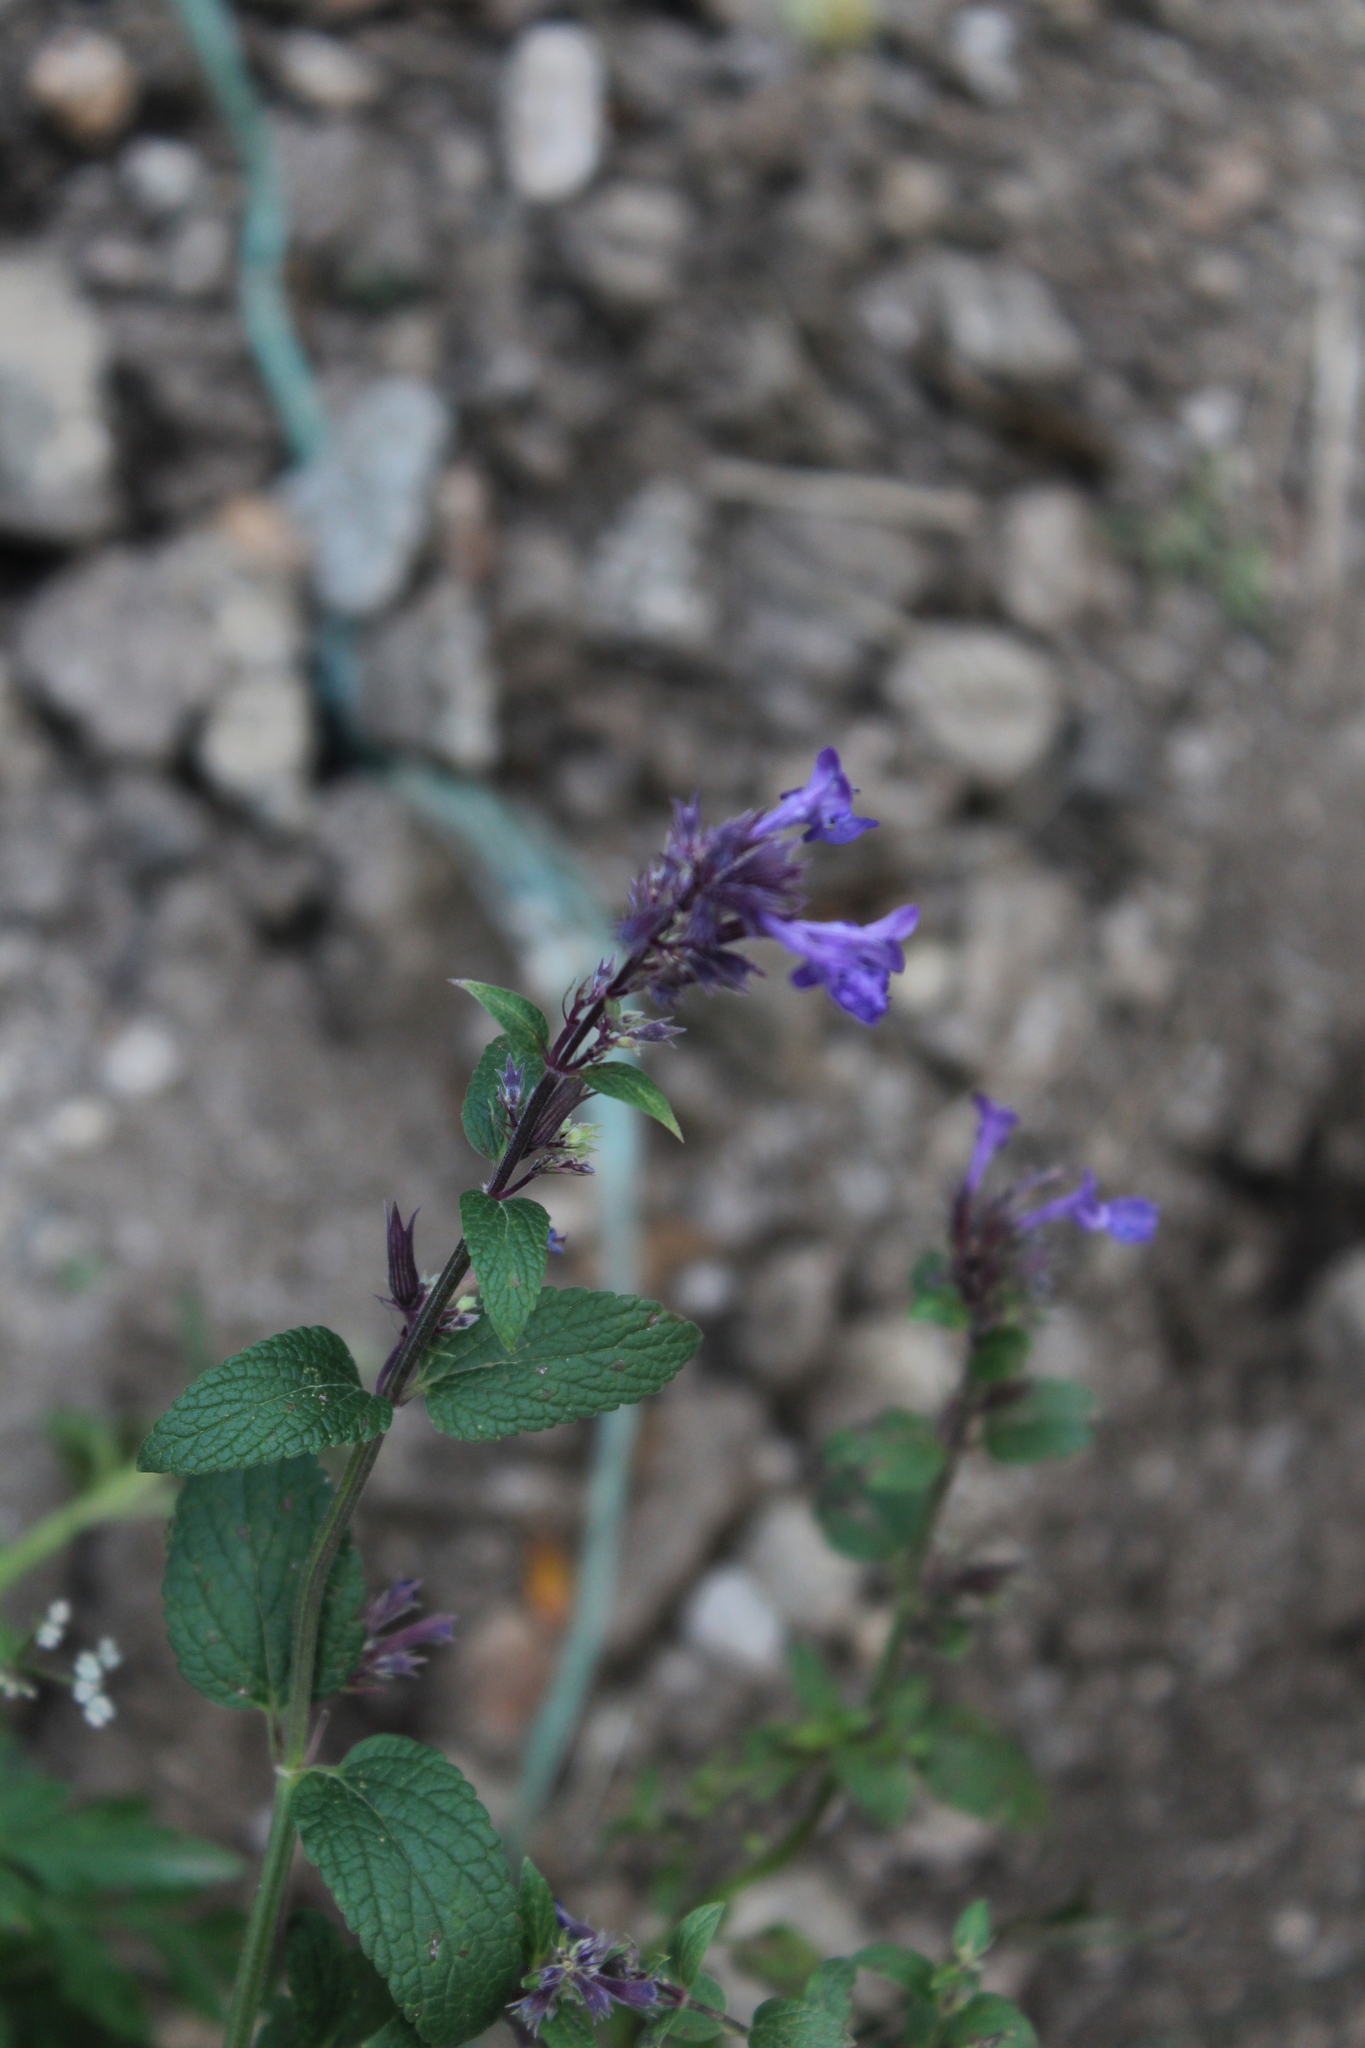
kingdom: Plantae
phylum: Tracheophyta
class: Magnoliopsida
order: Lamiales
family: Lamiaceae
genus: Nepeta
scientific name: Nepeta grandiflora
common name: Caucasus catmint
